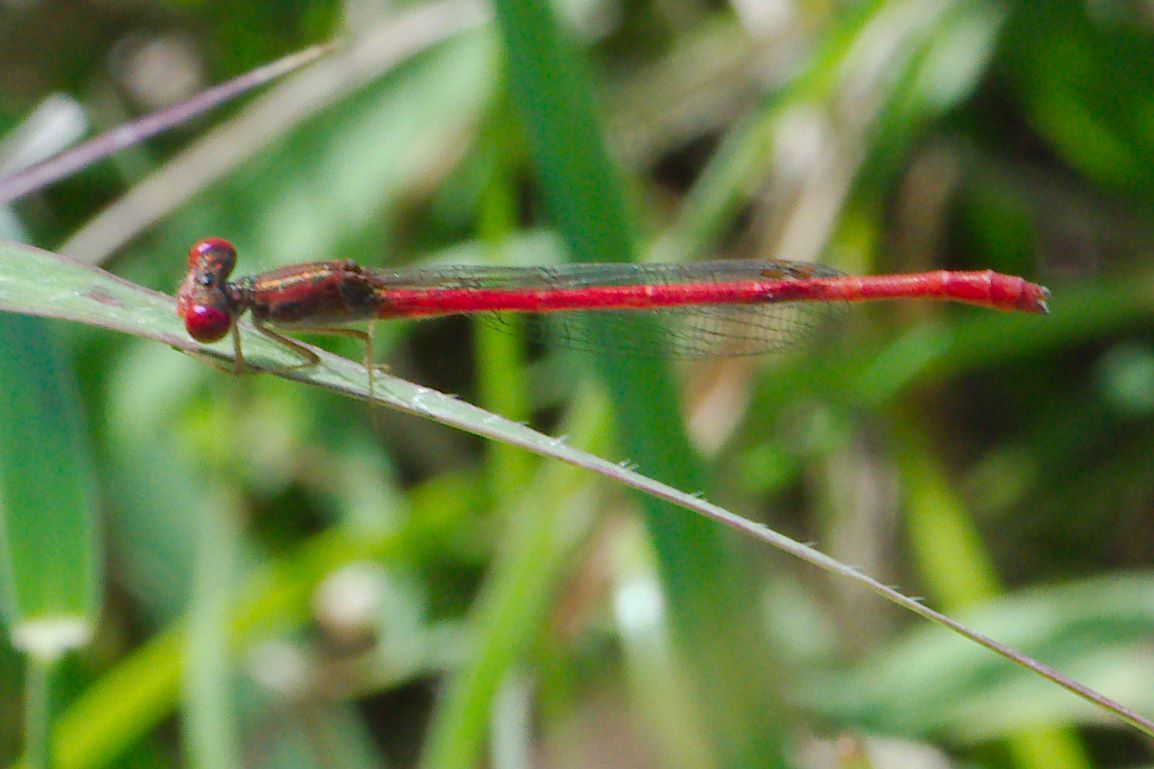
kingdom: Animalia
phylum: Arthropoda
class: Insecta
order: Odonata
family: Coenagrionidae
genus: Telebasis
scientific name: Telebasis salva
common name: Desert firetail
